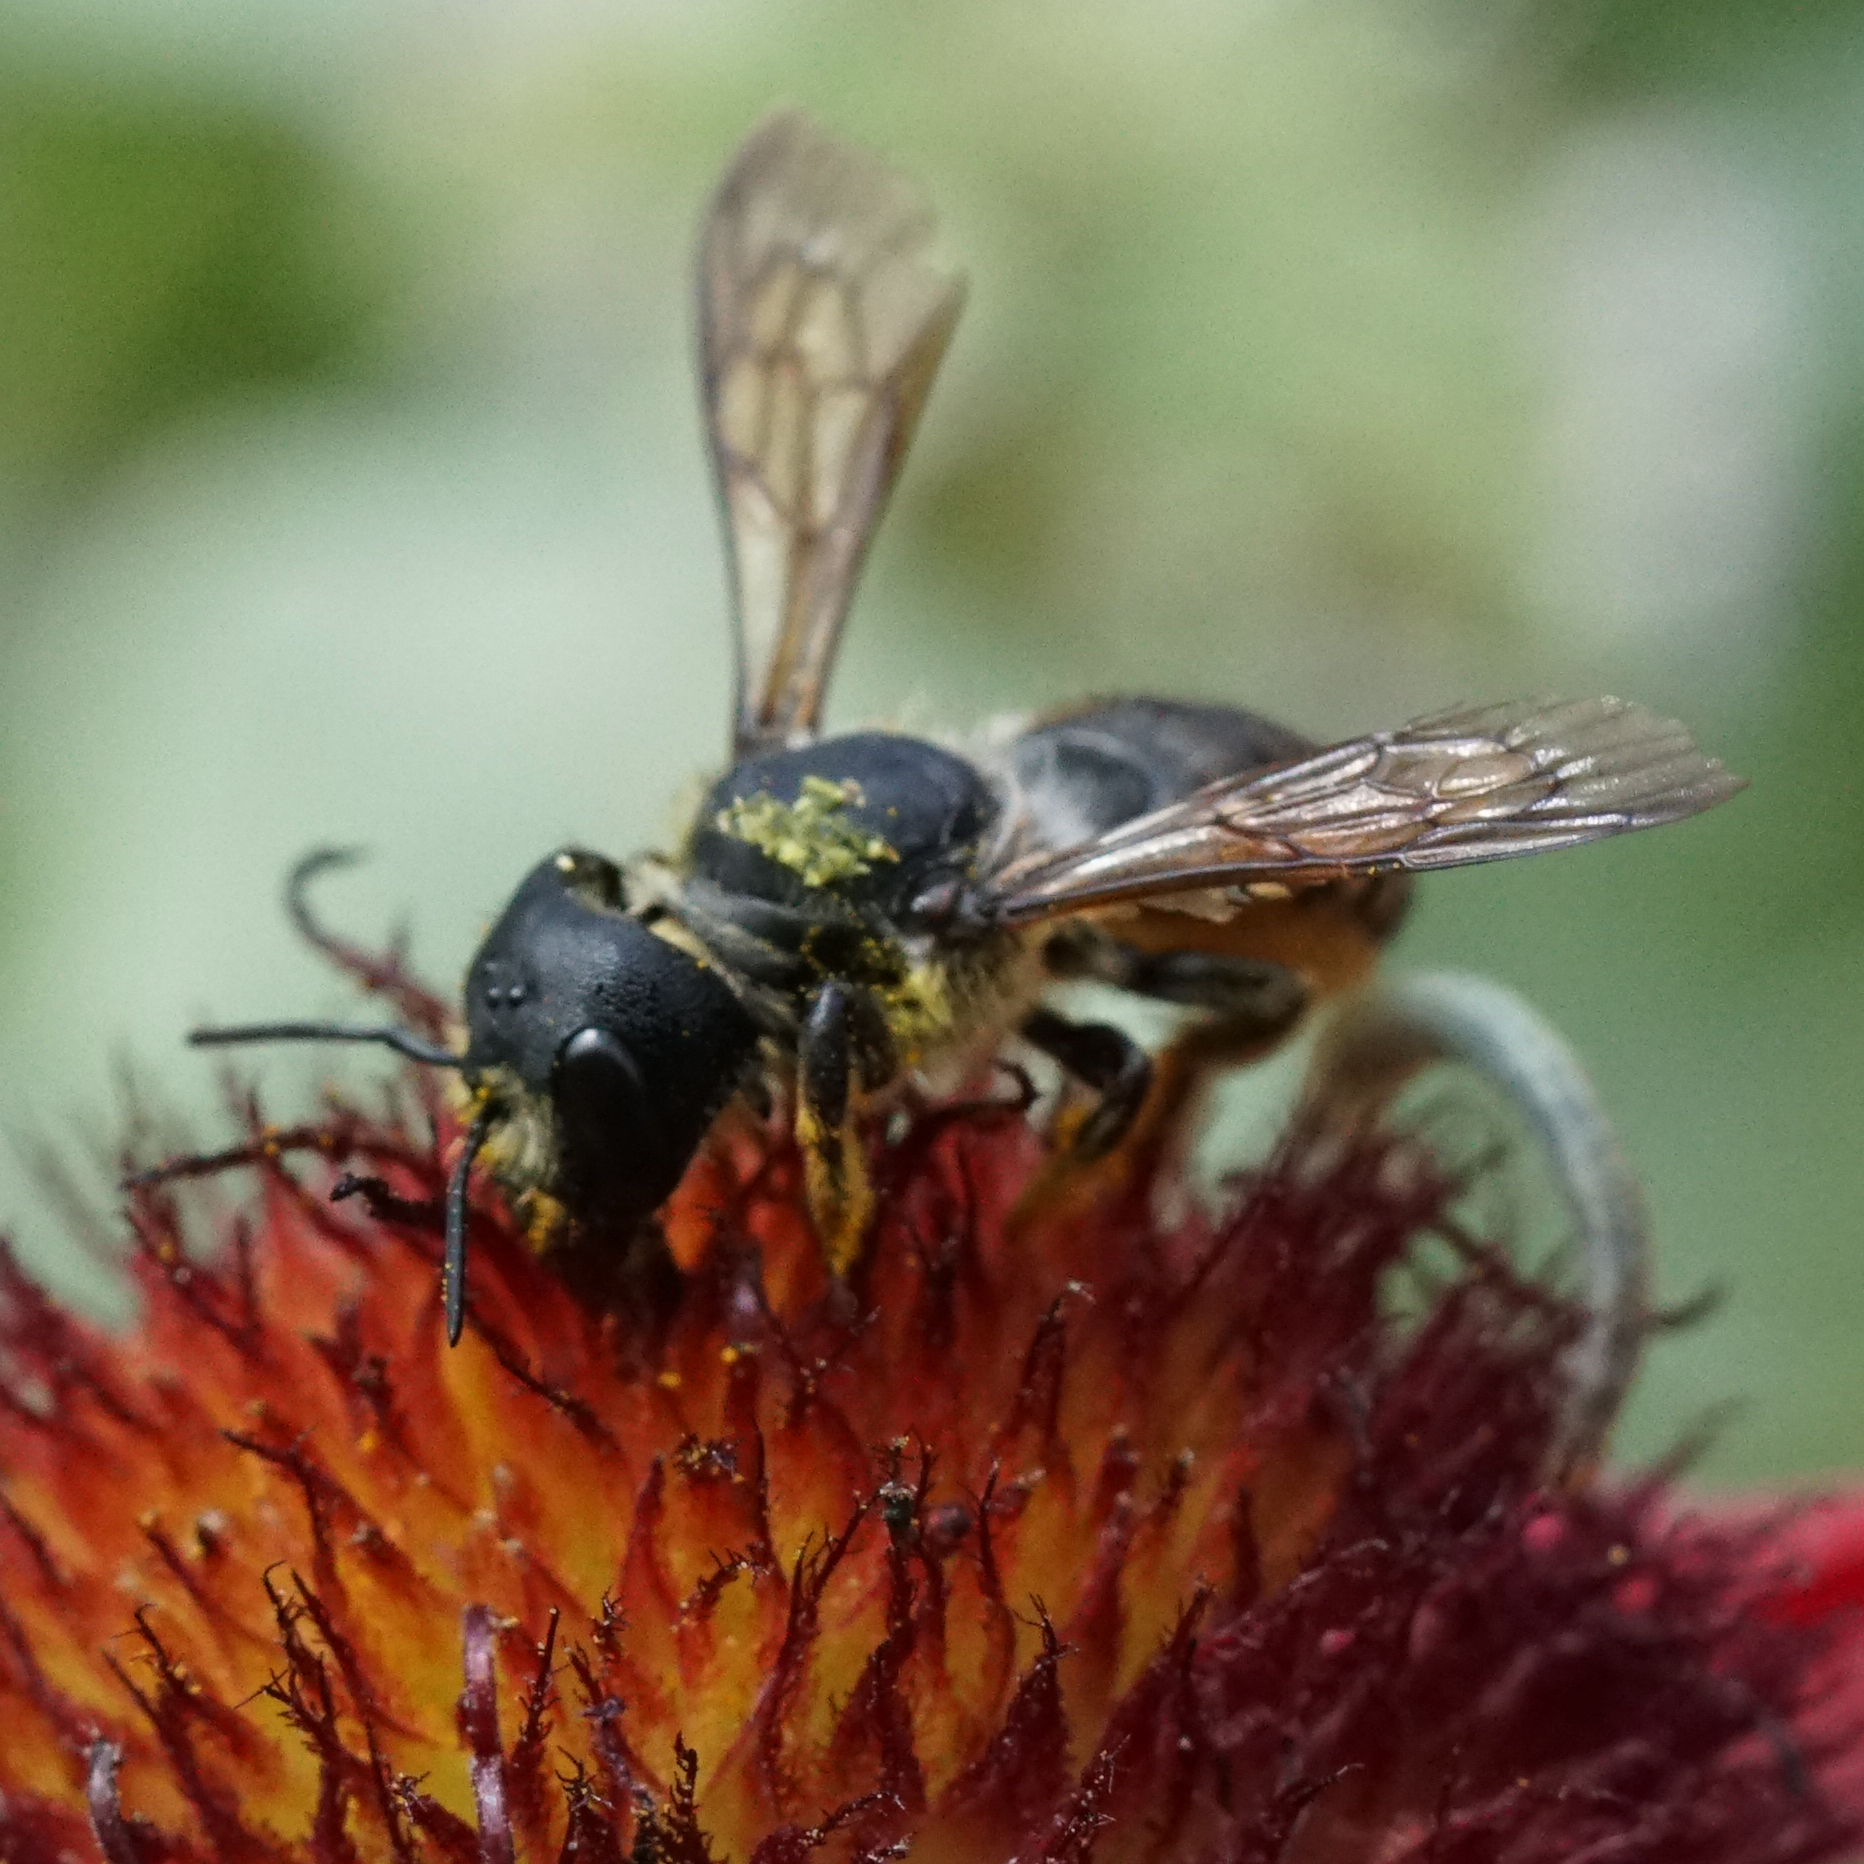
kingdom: Animalia
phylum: Arthropoda
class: Insecta
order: Hymenoptera
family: Megachilidae
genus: Megachile
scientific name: Megachile pugnata
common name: Pugnacious leafcutter bee
